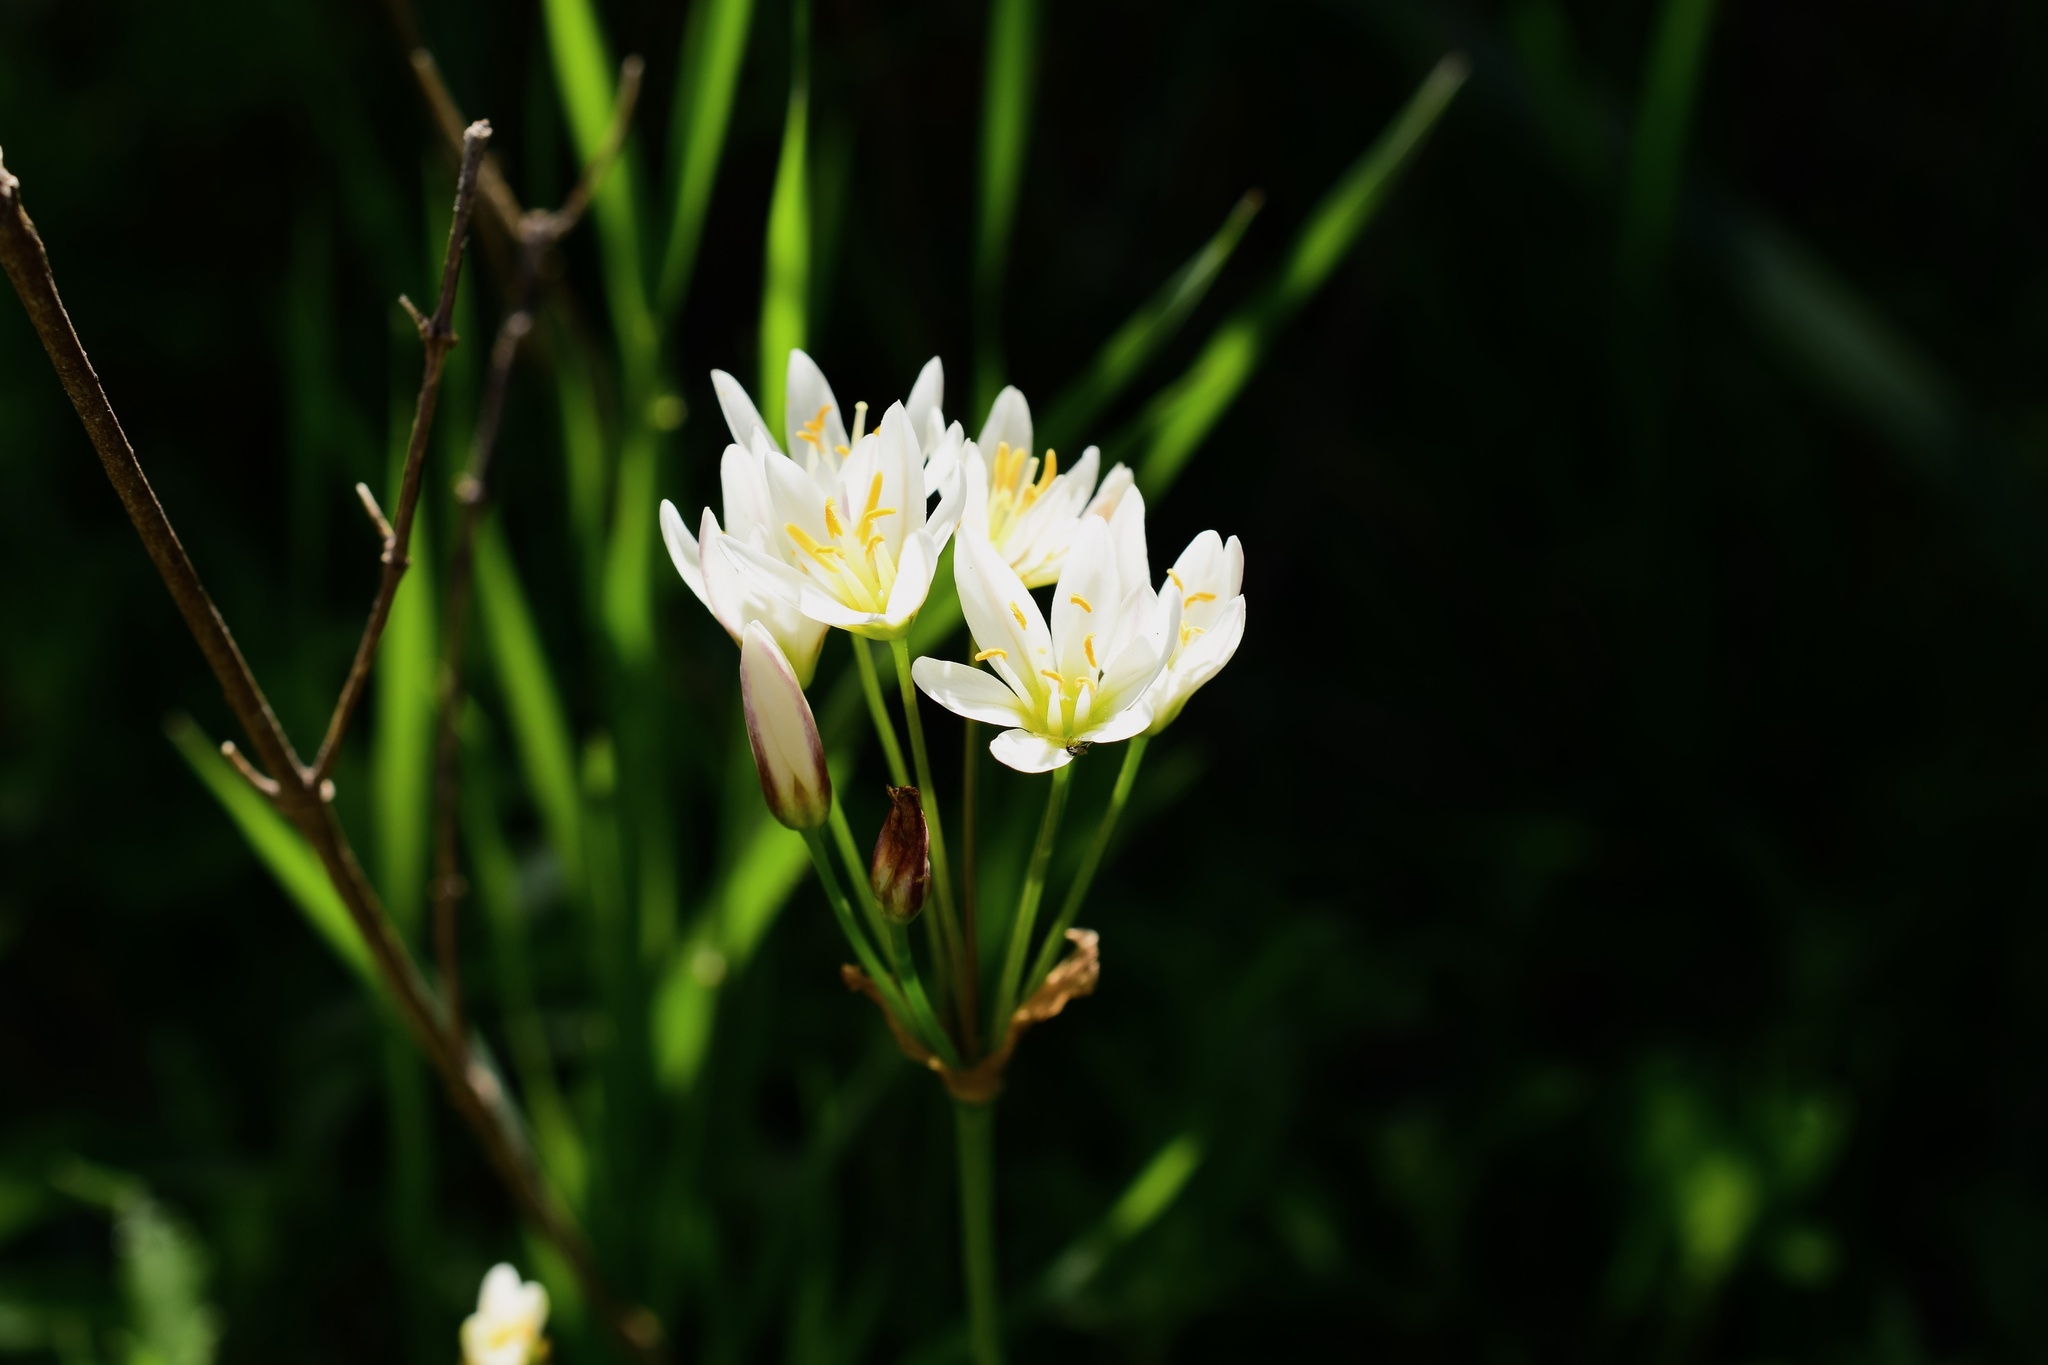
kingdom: Plantae
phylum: Tracheophyta
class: Liliopsida
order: Asparagales
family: Amaryllidaceae
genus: Nothoscordum
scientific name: Nothoscordum bivalve
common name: Crow-poison
